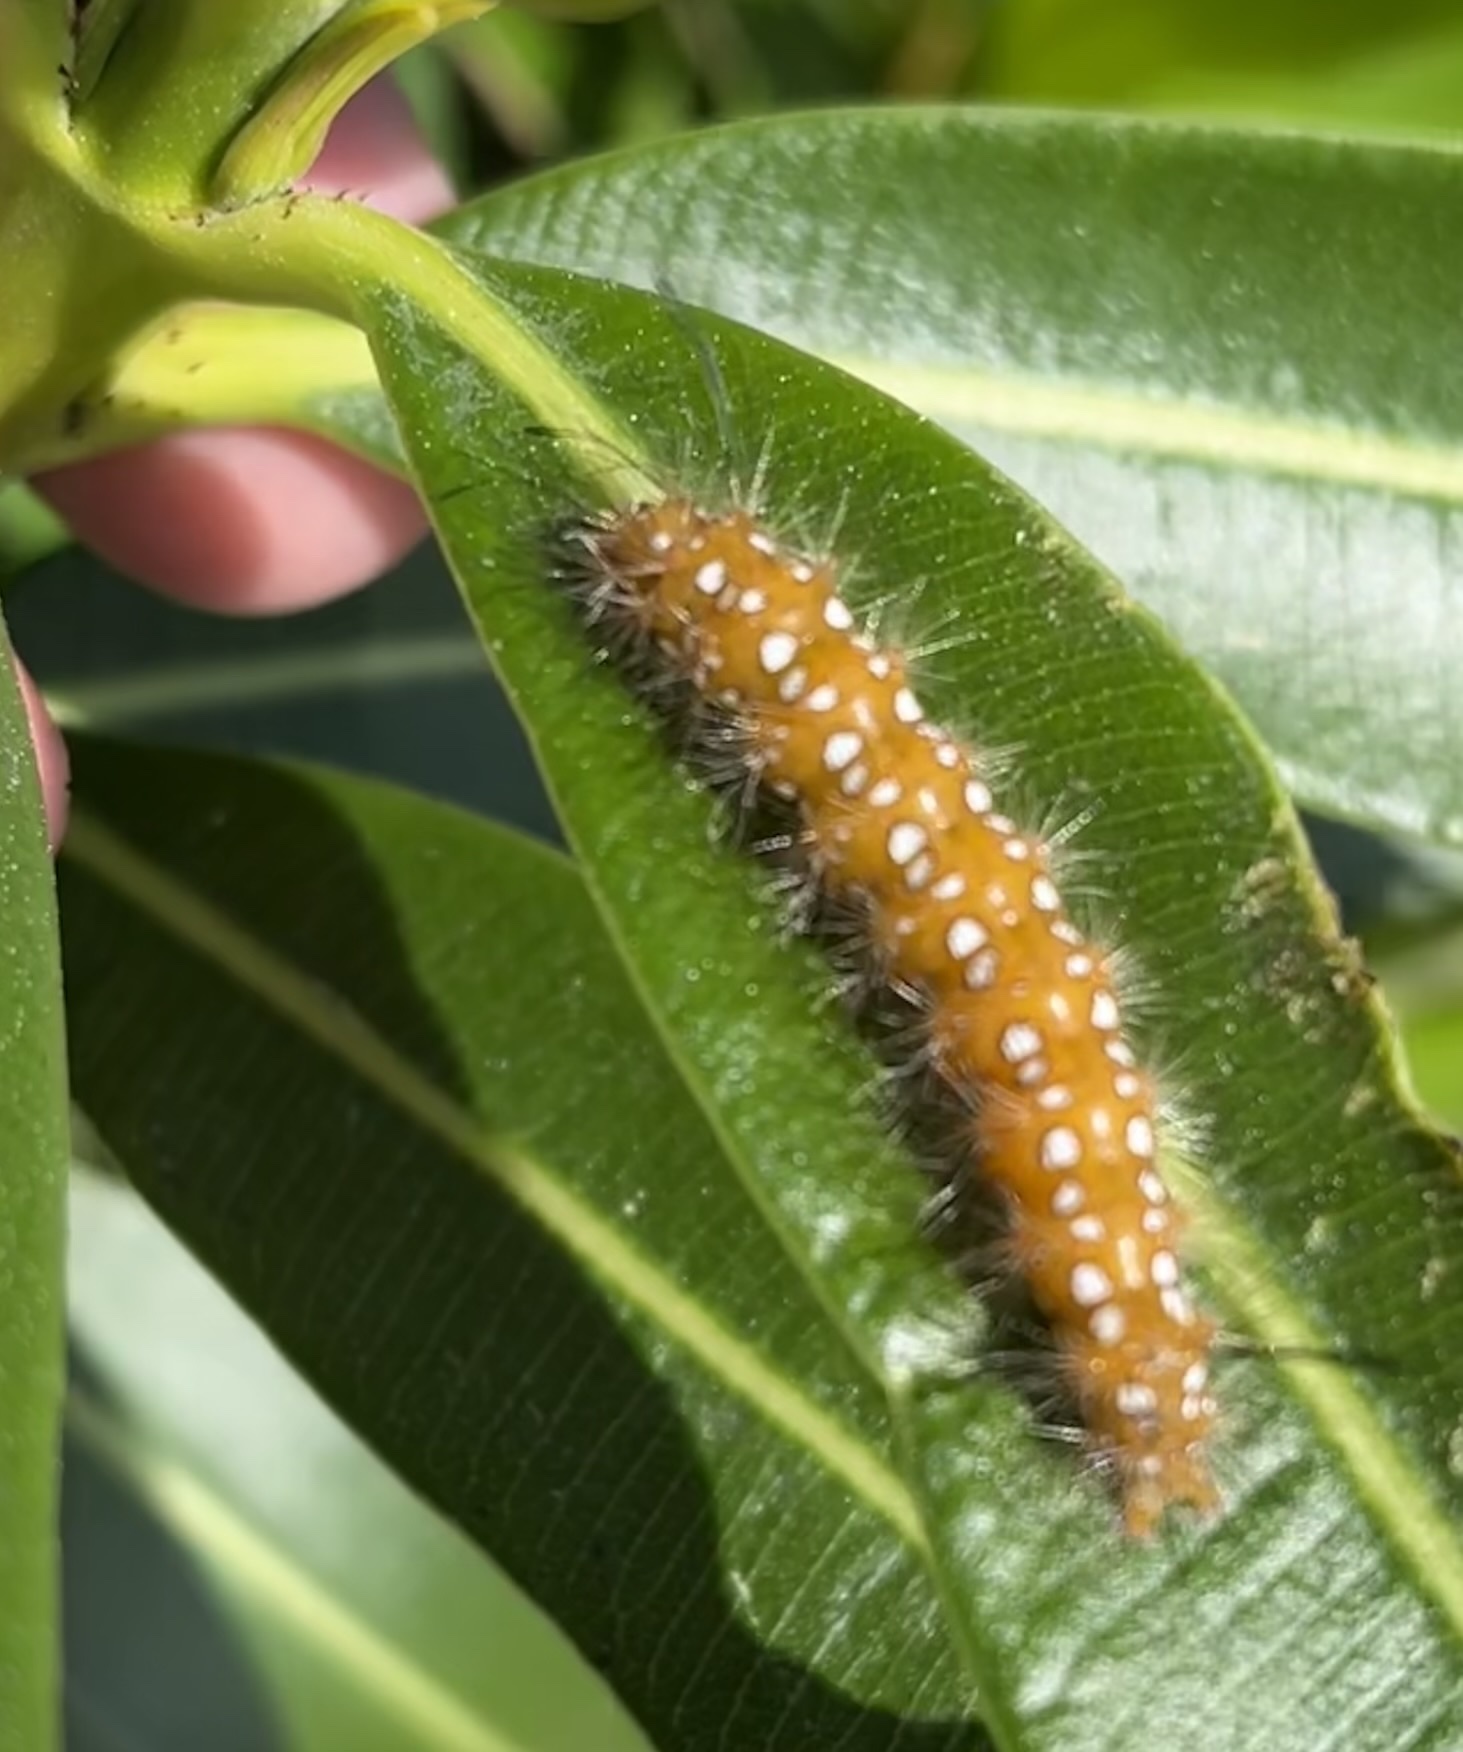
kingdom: Animalia
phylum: Arthropoda
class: Insecta
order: Lepidoptera
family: Erebidae
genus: Empyreuma
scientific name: Empyreuma pugione
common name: Spotted oleander caterpillar moth
